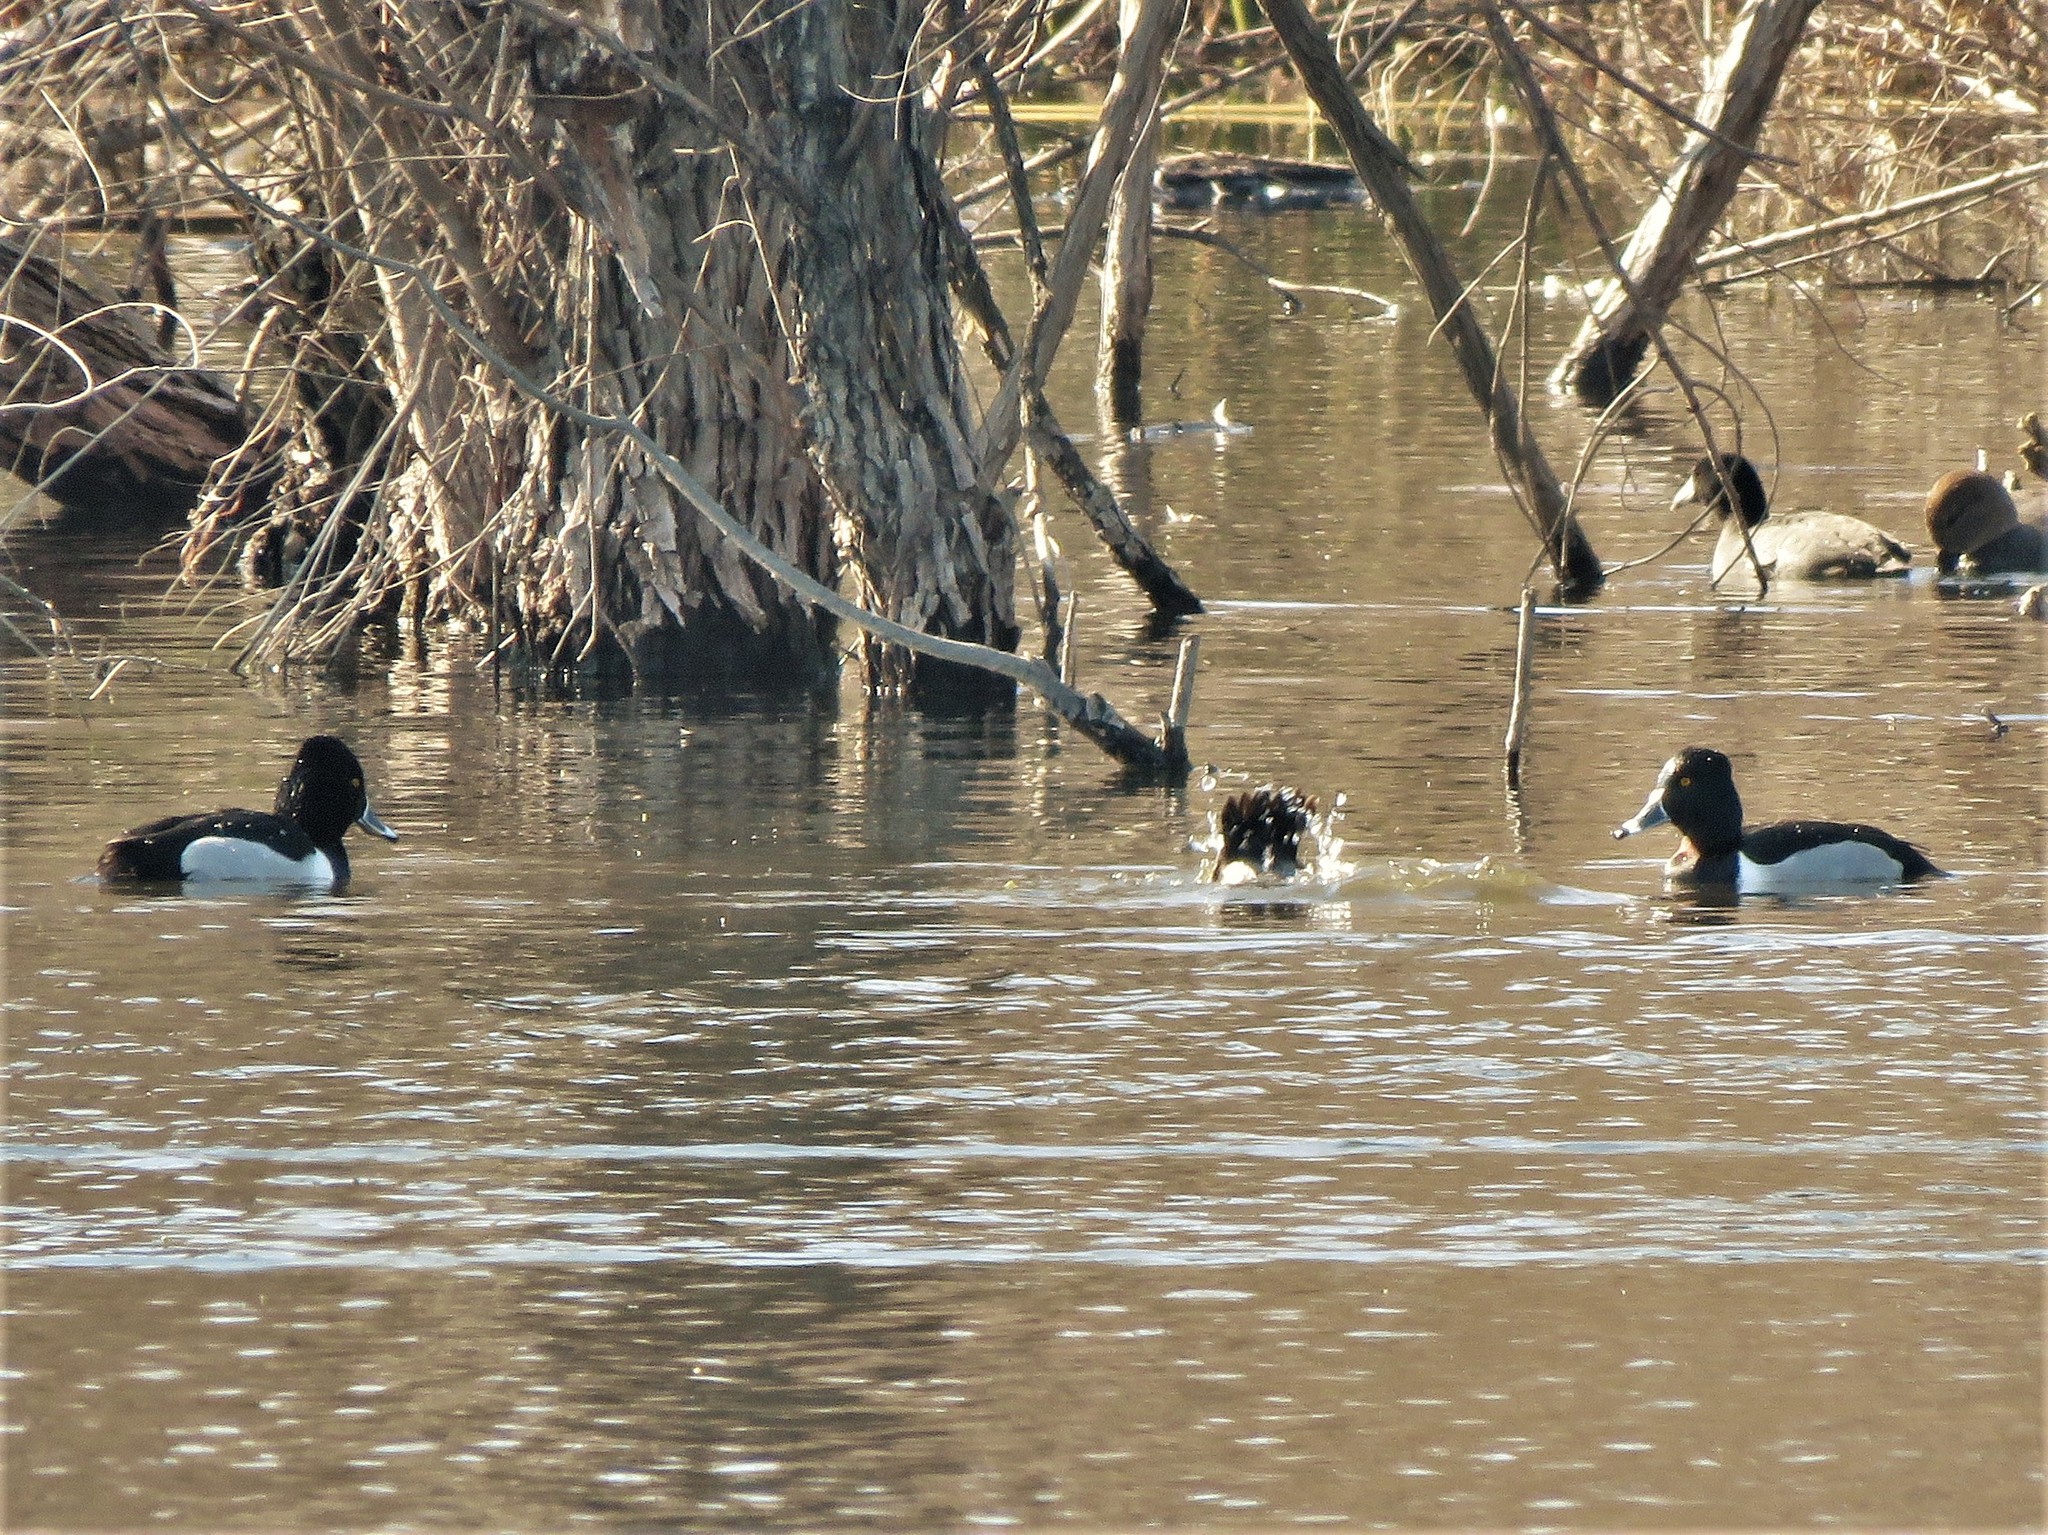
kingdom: Animalia
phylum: Chordata
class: Aves
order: Anseriformes
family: Anatidae
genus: Aythya
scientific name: Aythya collaris
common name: Ring-necked duck
